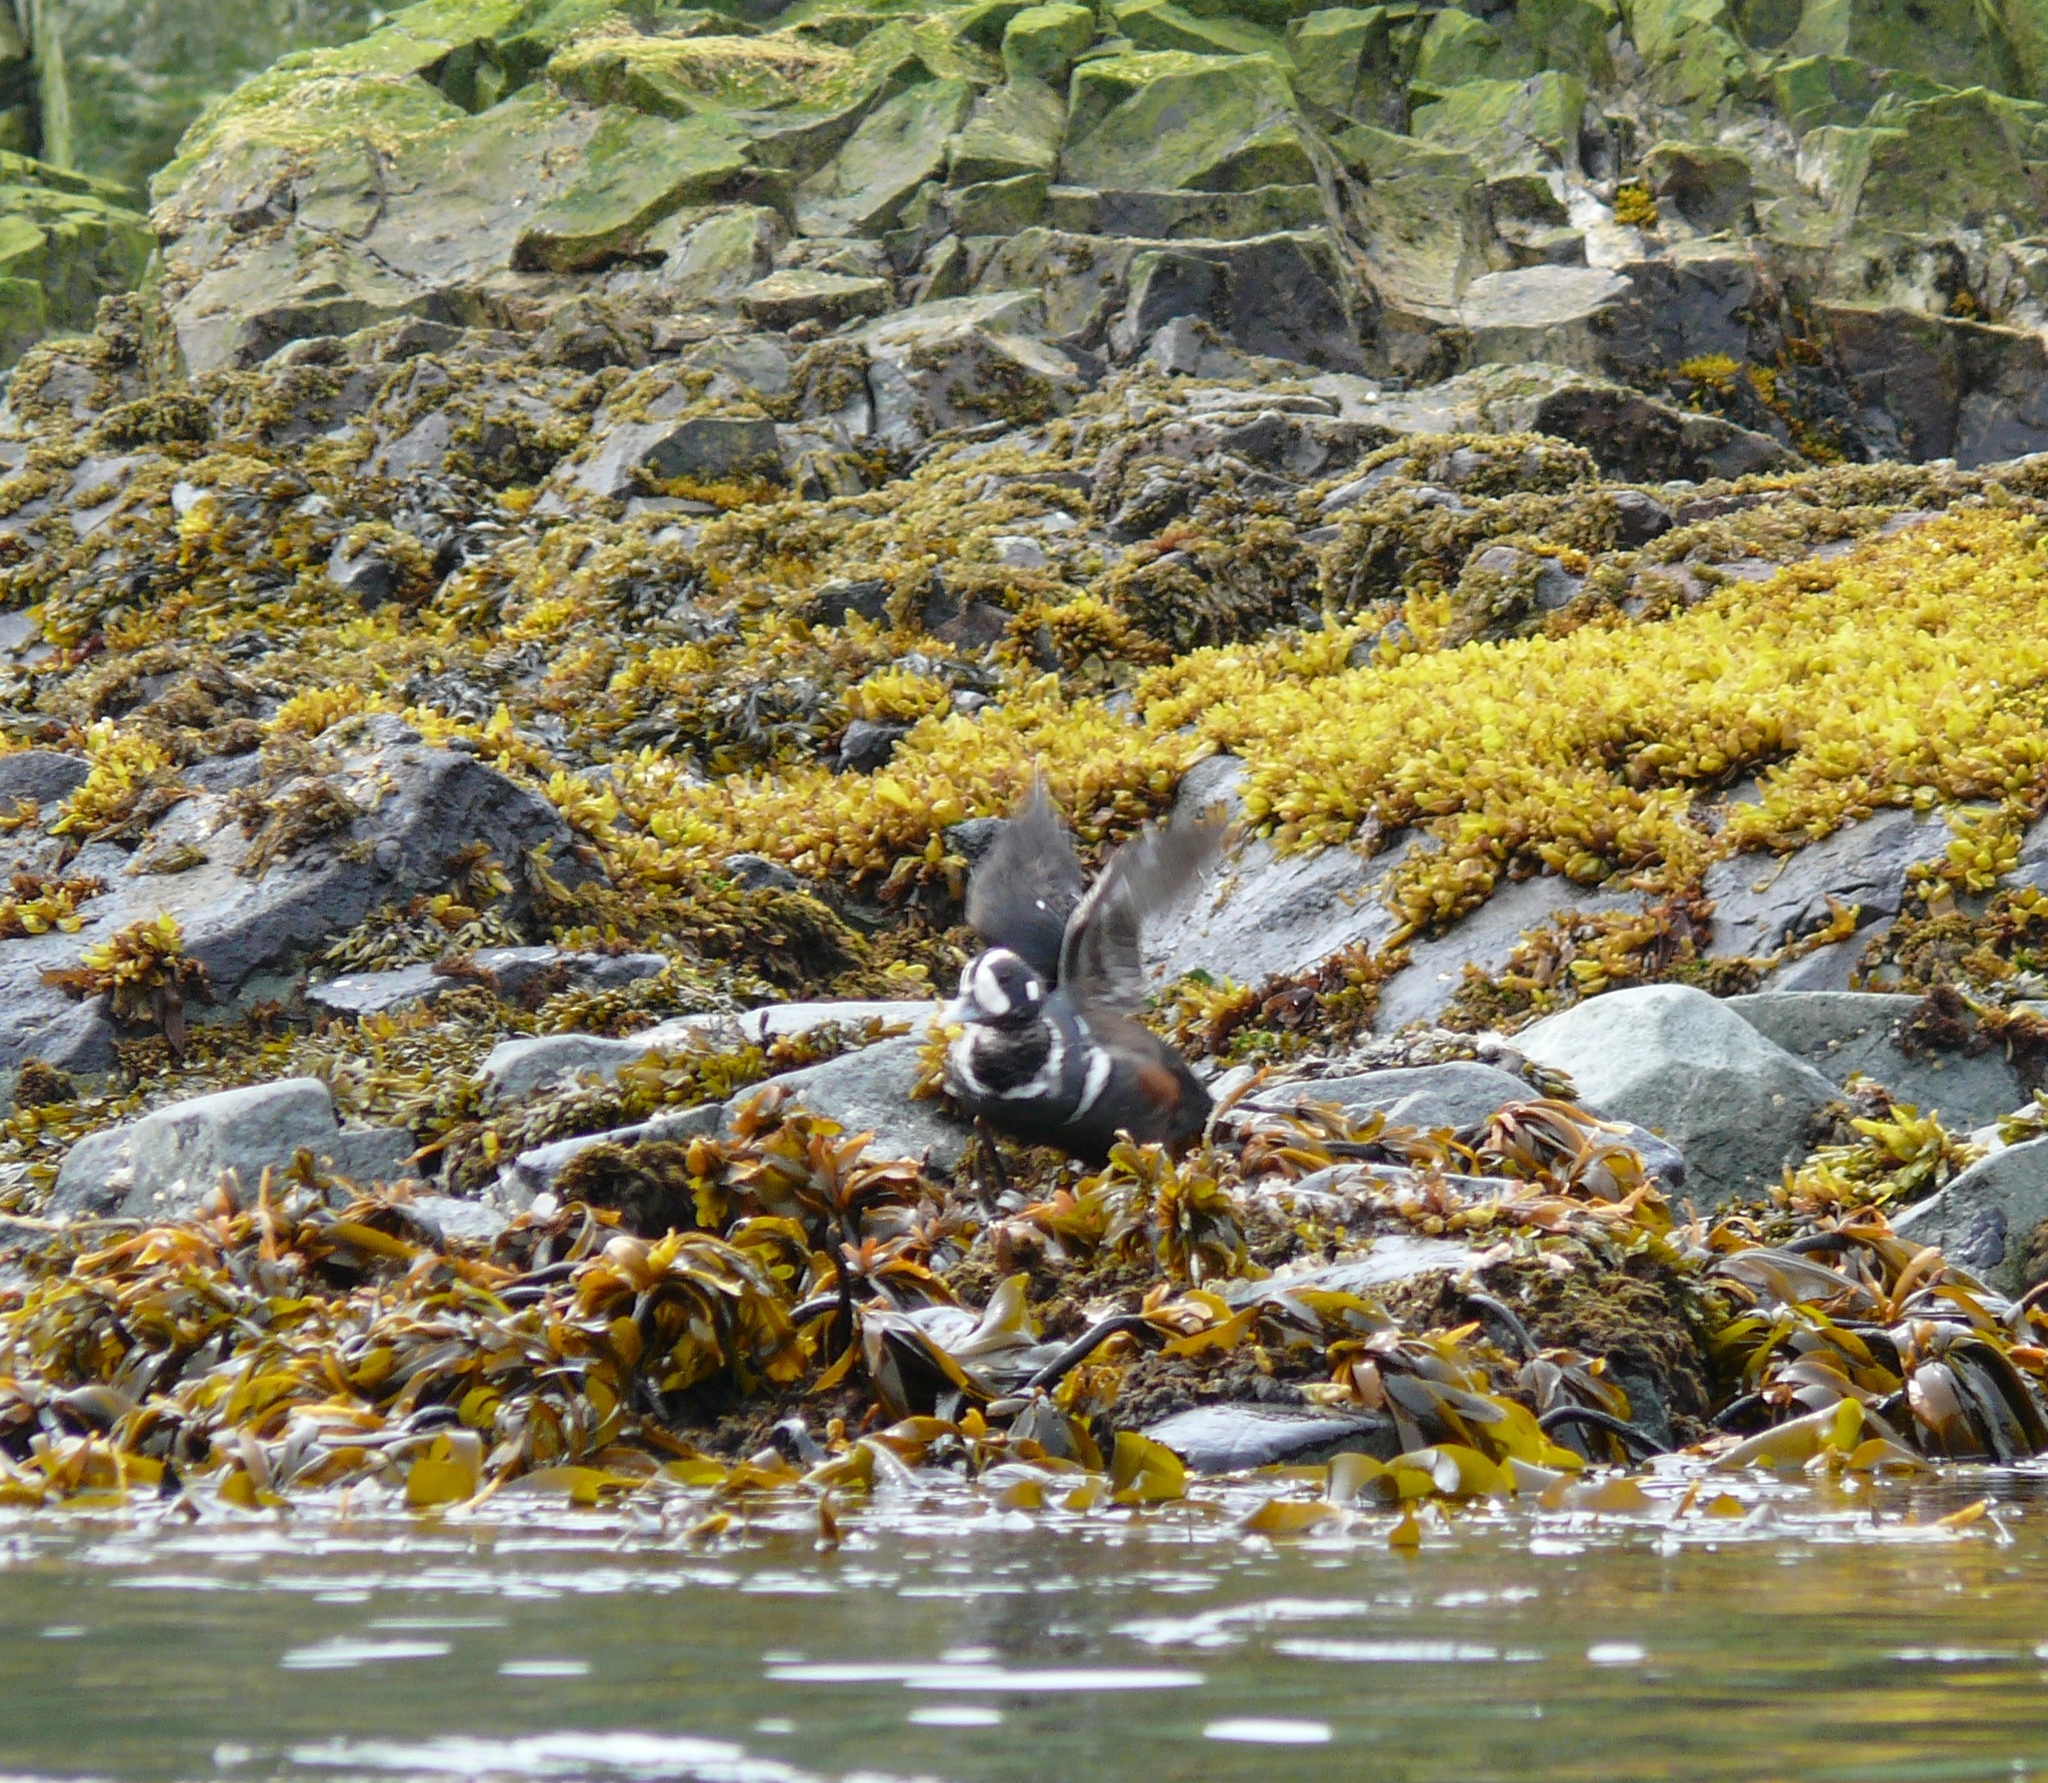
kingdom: Animalia
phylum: Chordata
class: Aves
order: Anseriformes
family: Anatidae
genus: Histrionicus
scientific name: Histrionicus histrionicus
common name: Harlequin duck
